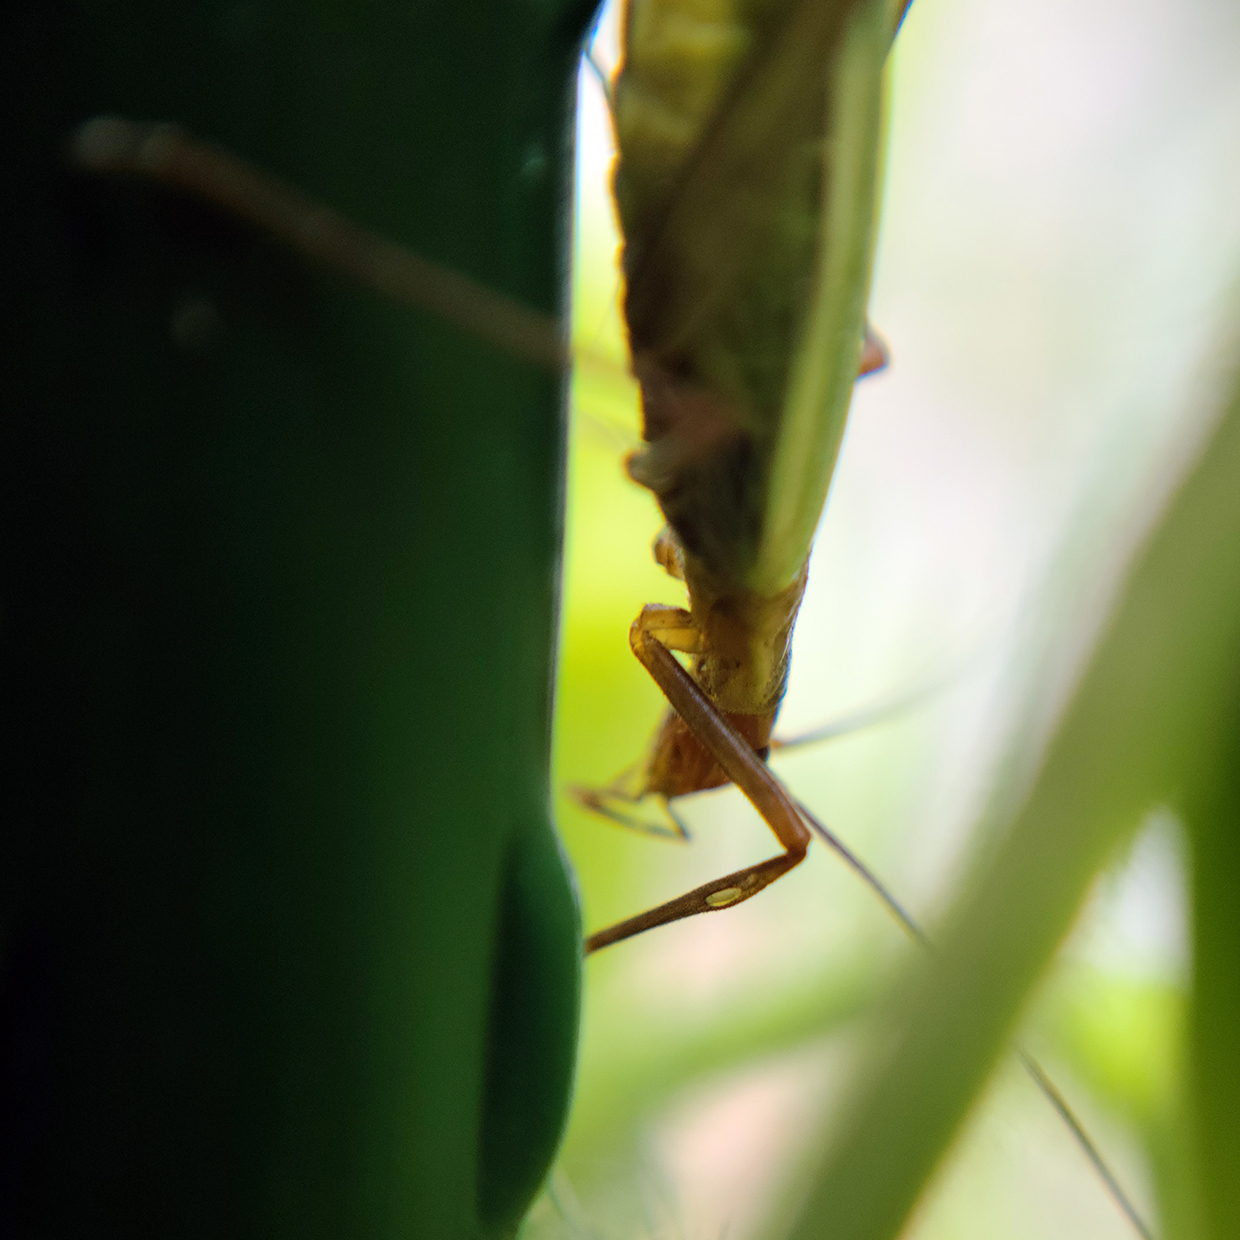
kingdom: Animalia
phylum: Arthropoda
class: Insecta
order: Orthoptera
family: Gryllidae
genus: Oecanthus
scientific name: Oecanthus pini
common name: Pine tree cricket
